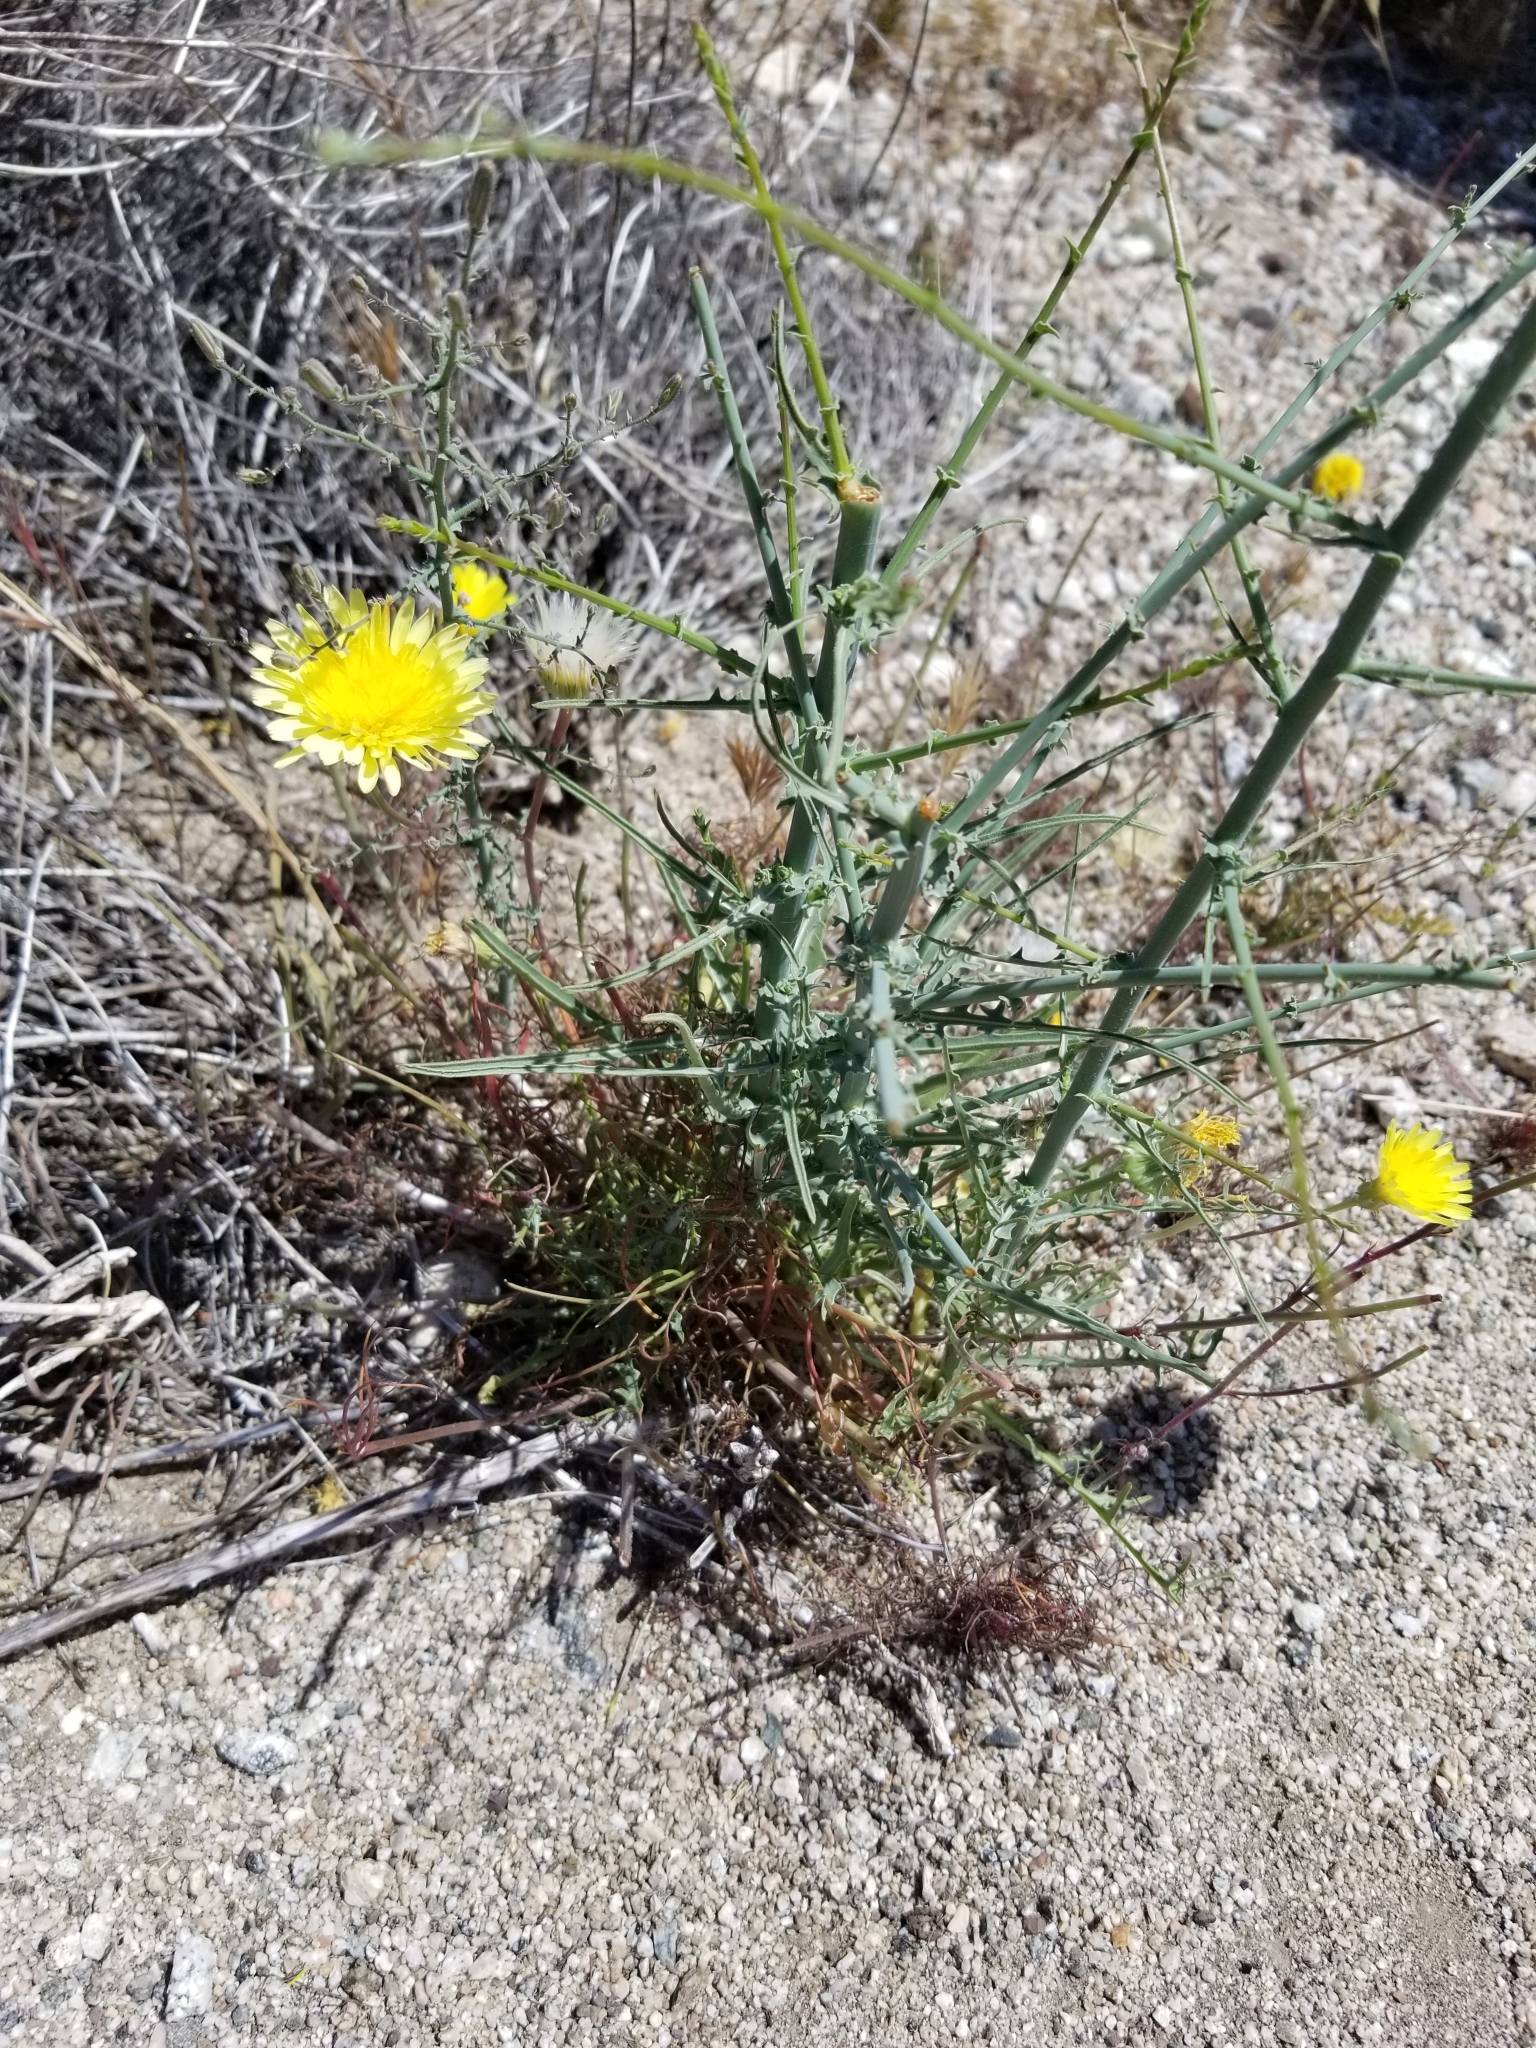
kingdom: Plantae
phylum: Tracheophyta
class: Magnoliopsida
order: Asterales
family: Asteraceae
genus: Malacothrix
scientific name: Malacothrix glabrata
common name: Smooth desert-dandelion
